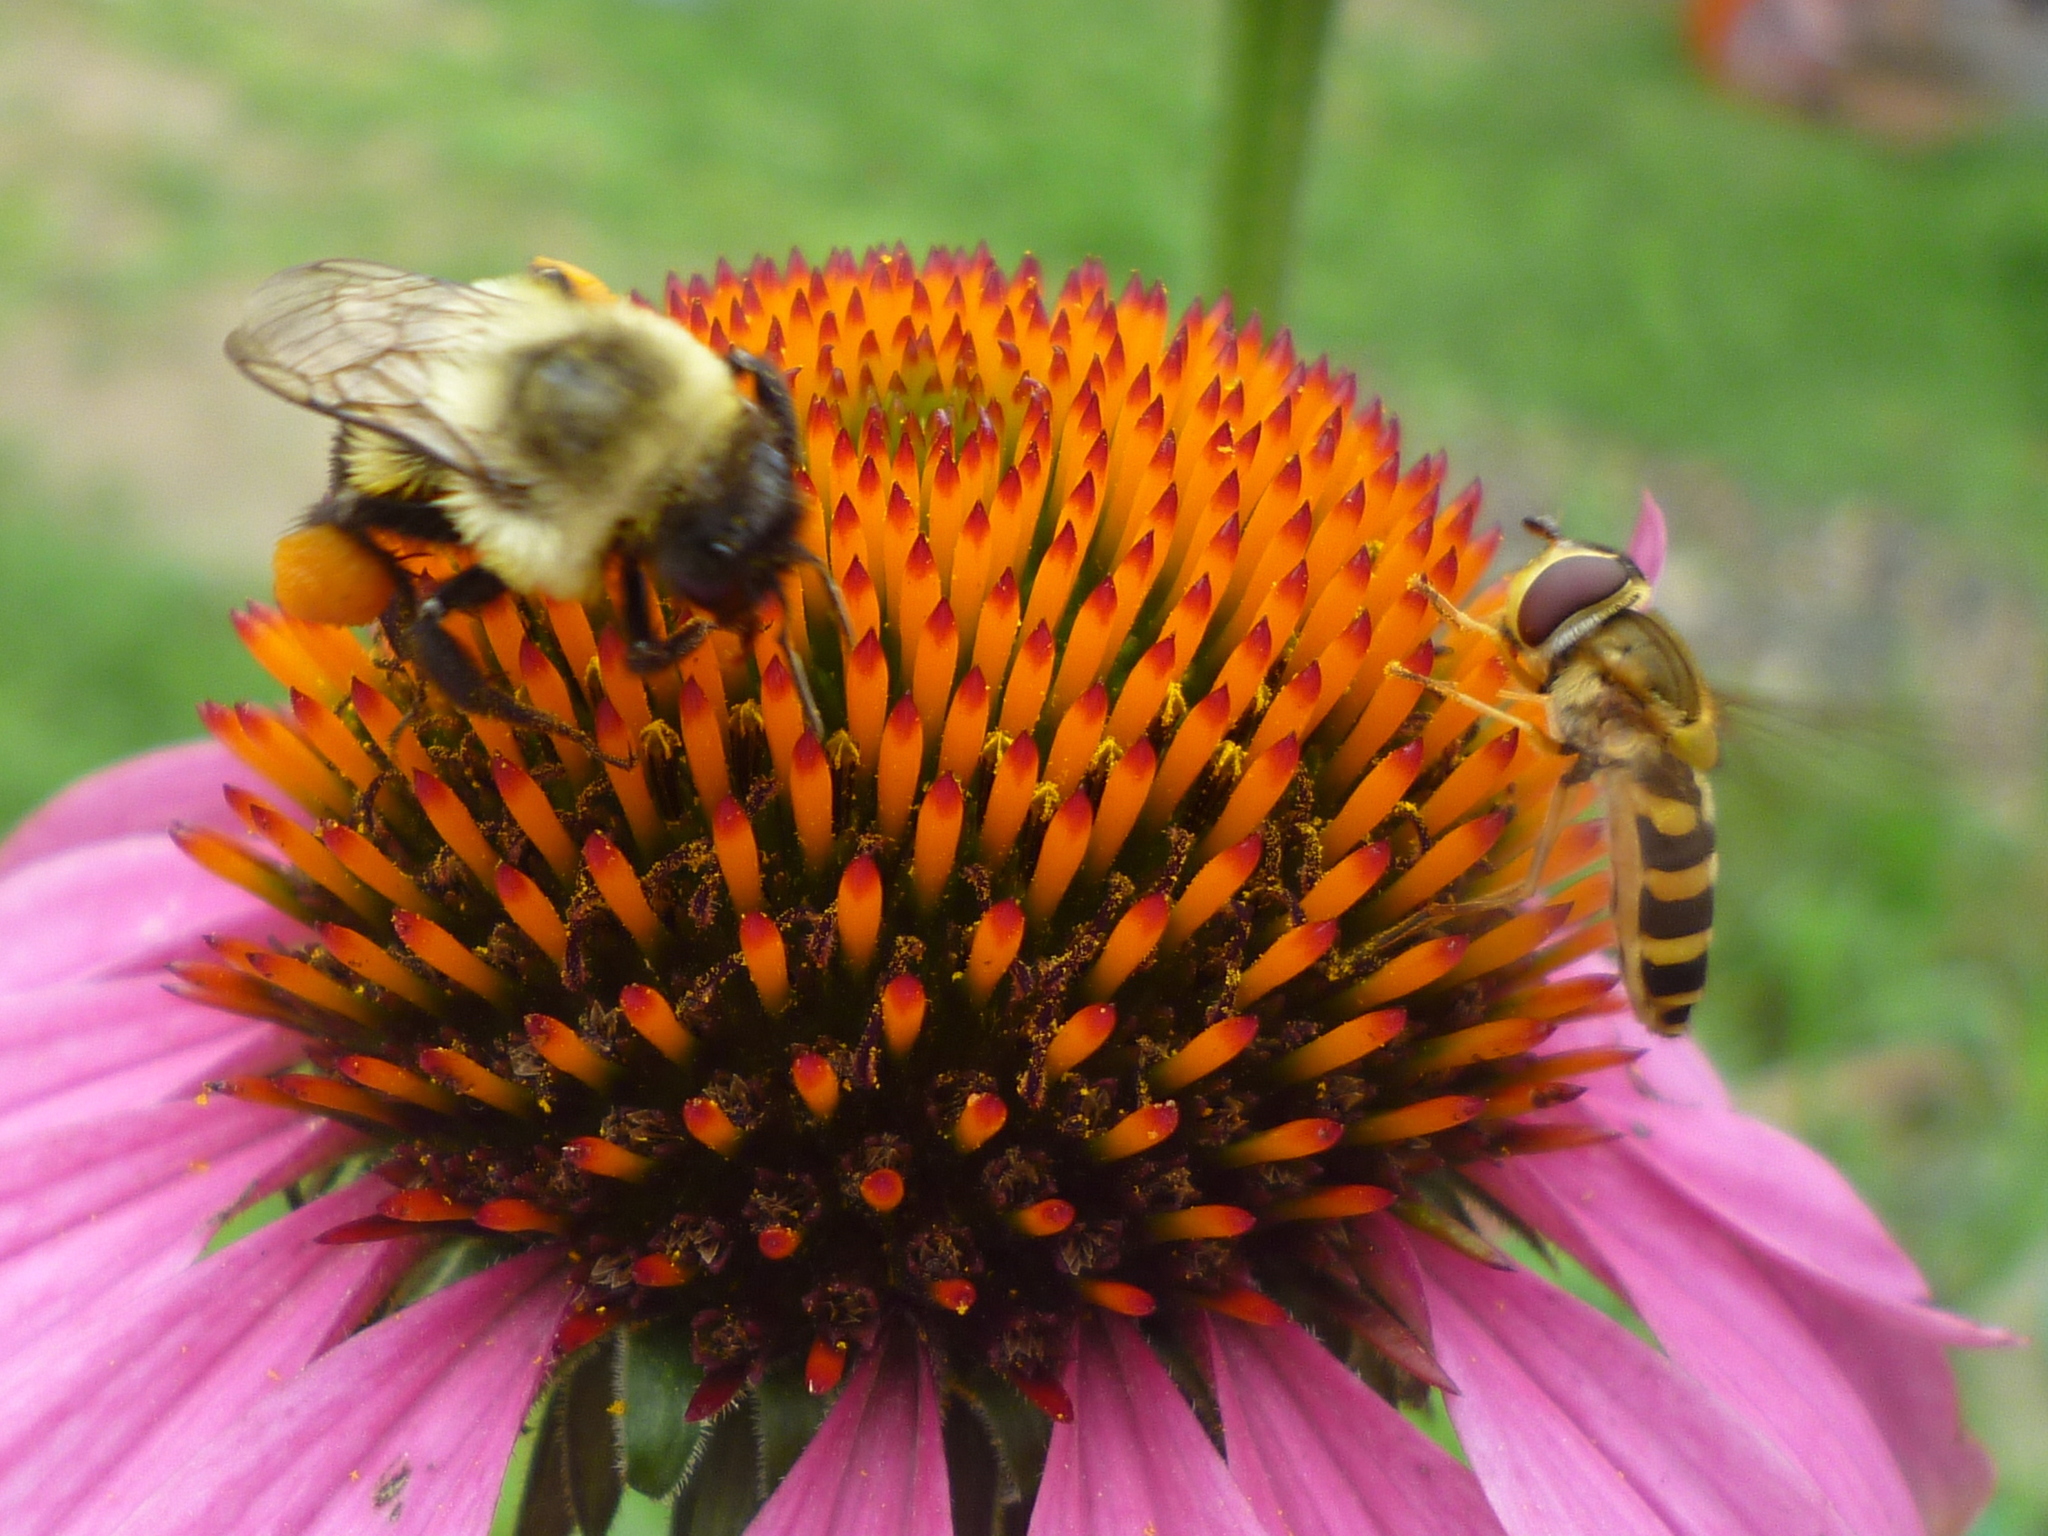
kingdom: Animalia
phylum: Arthropoda
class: Insecta
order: Diptera
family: Syrphidae
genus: Syrphus
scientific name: Syrphus ribesii
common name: Common flower fly
